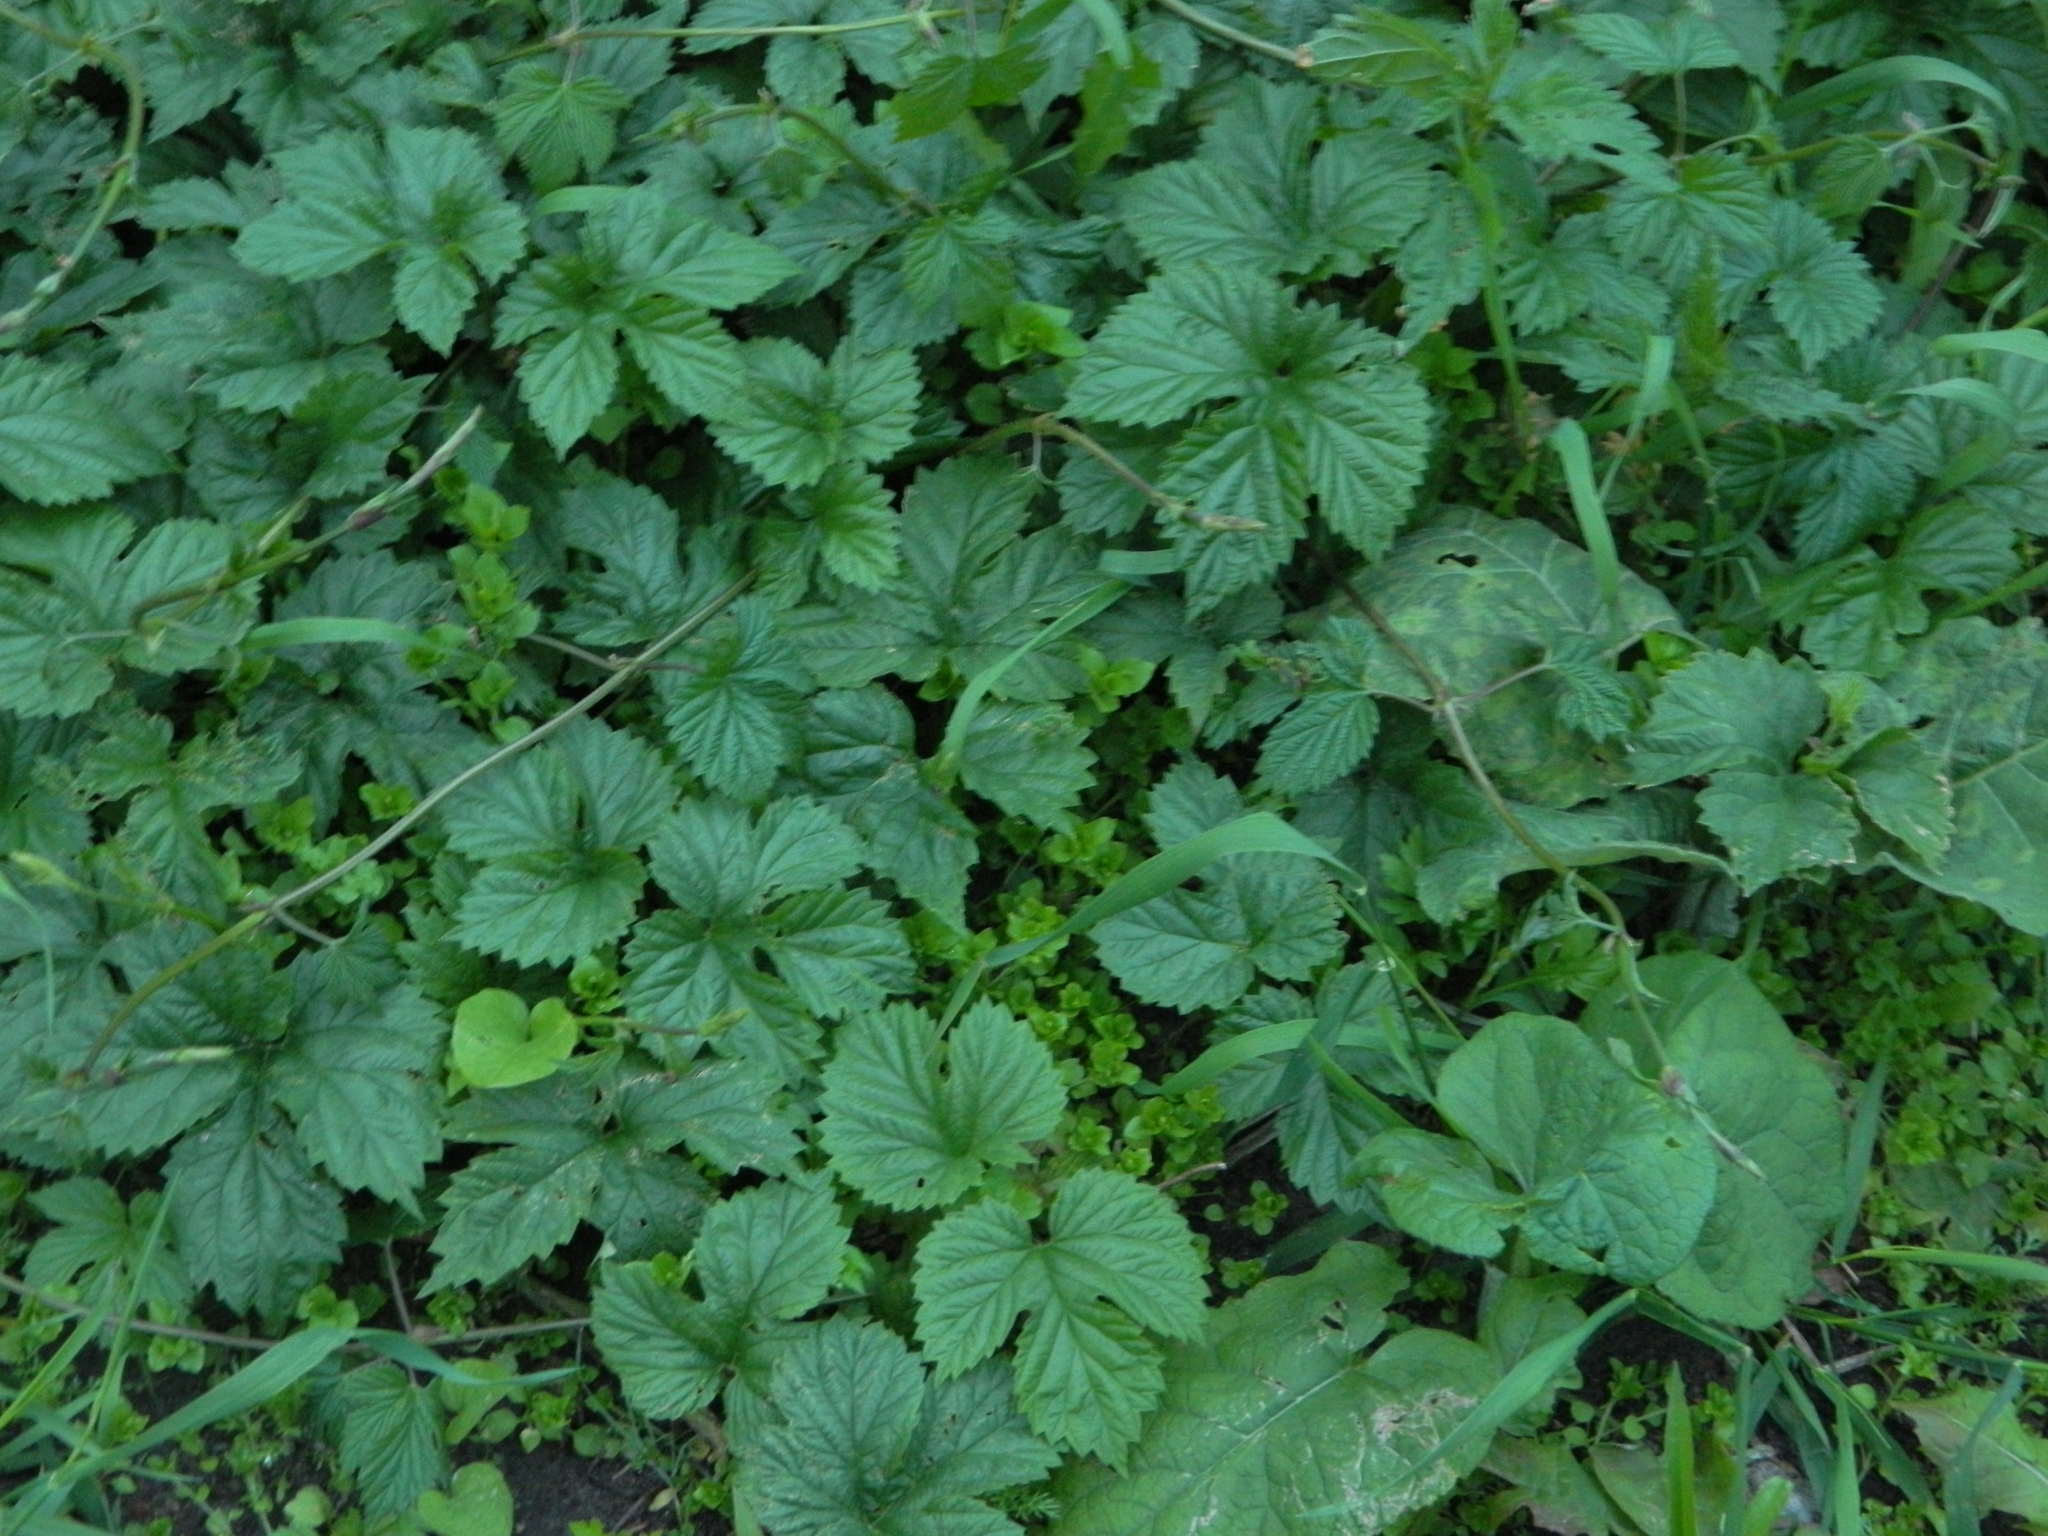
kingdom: Plantae
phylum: Tracheophyta
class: Magnoliopsida
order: Rosales
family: Cannabaceae
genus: Humulus
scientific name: Humulus lupulus
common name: Hop
